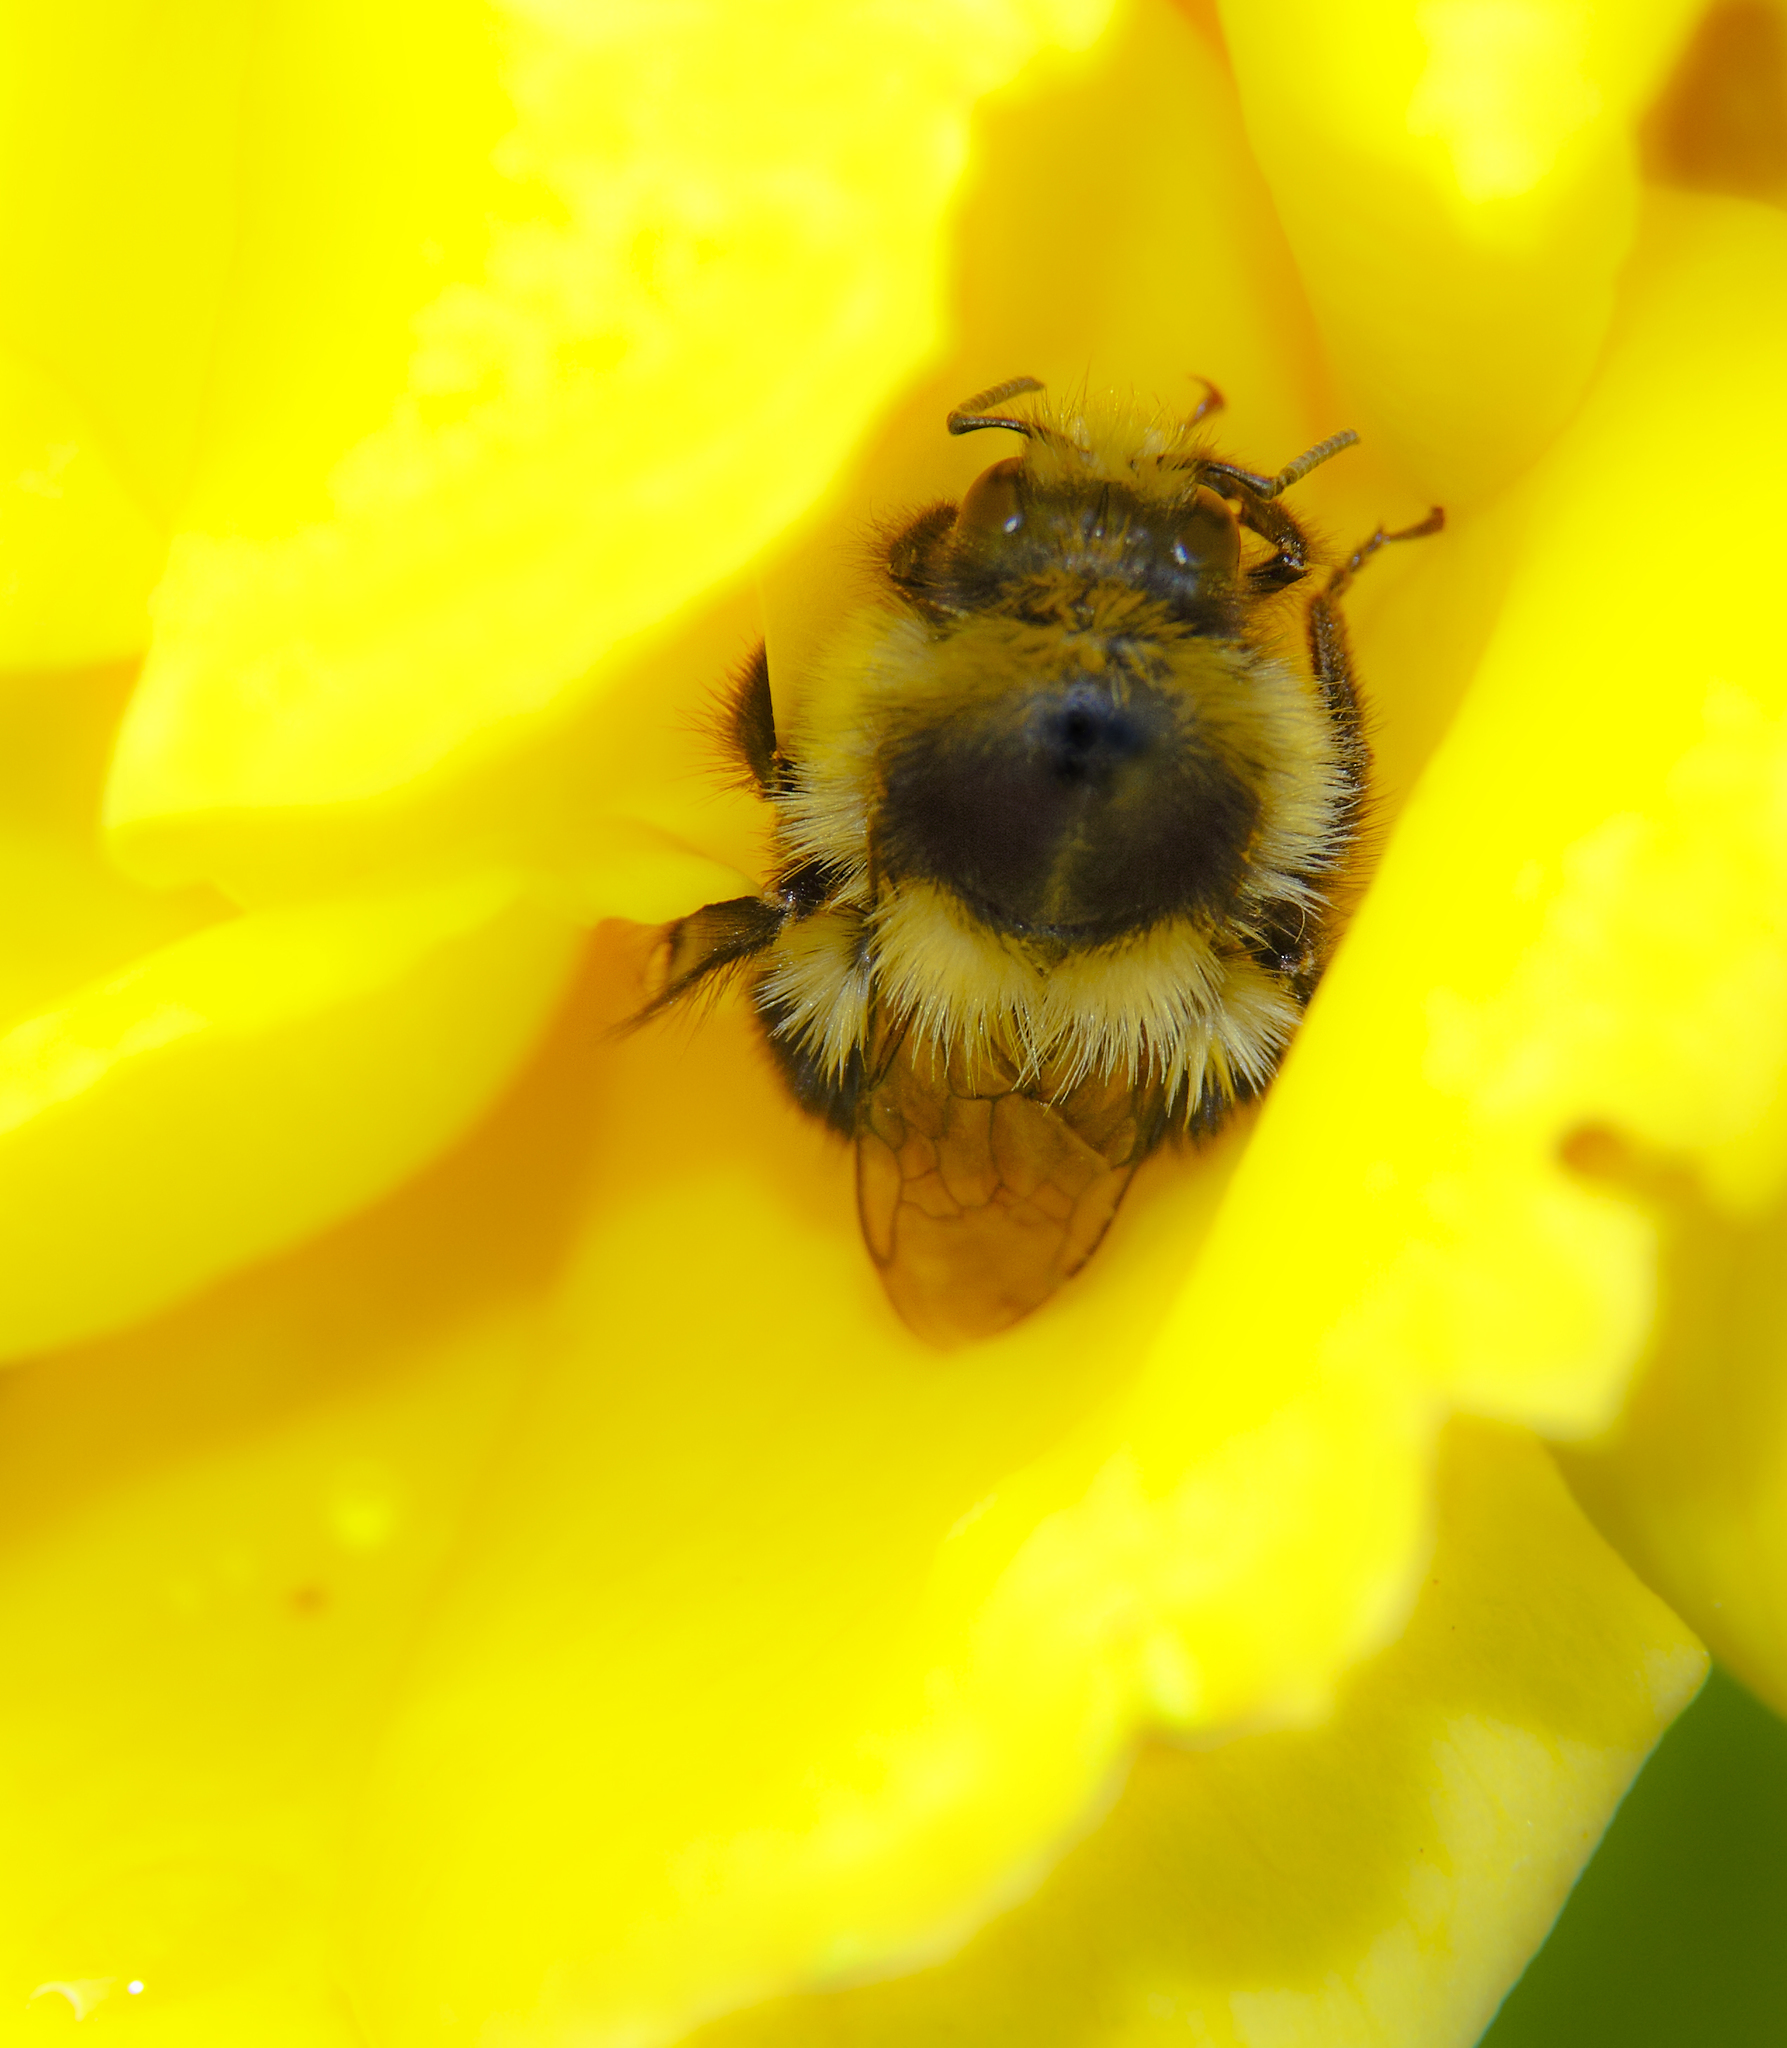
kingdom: Animalia
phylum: Arthropoda
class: Insecta
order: Hymenoptera
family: Apidae
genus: Bombus
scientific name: Bombus melanopygus
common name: Black tail bumble bee
